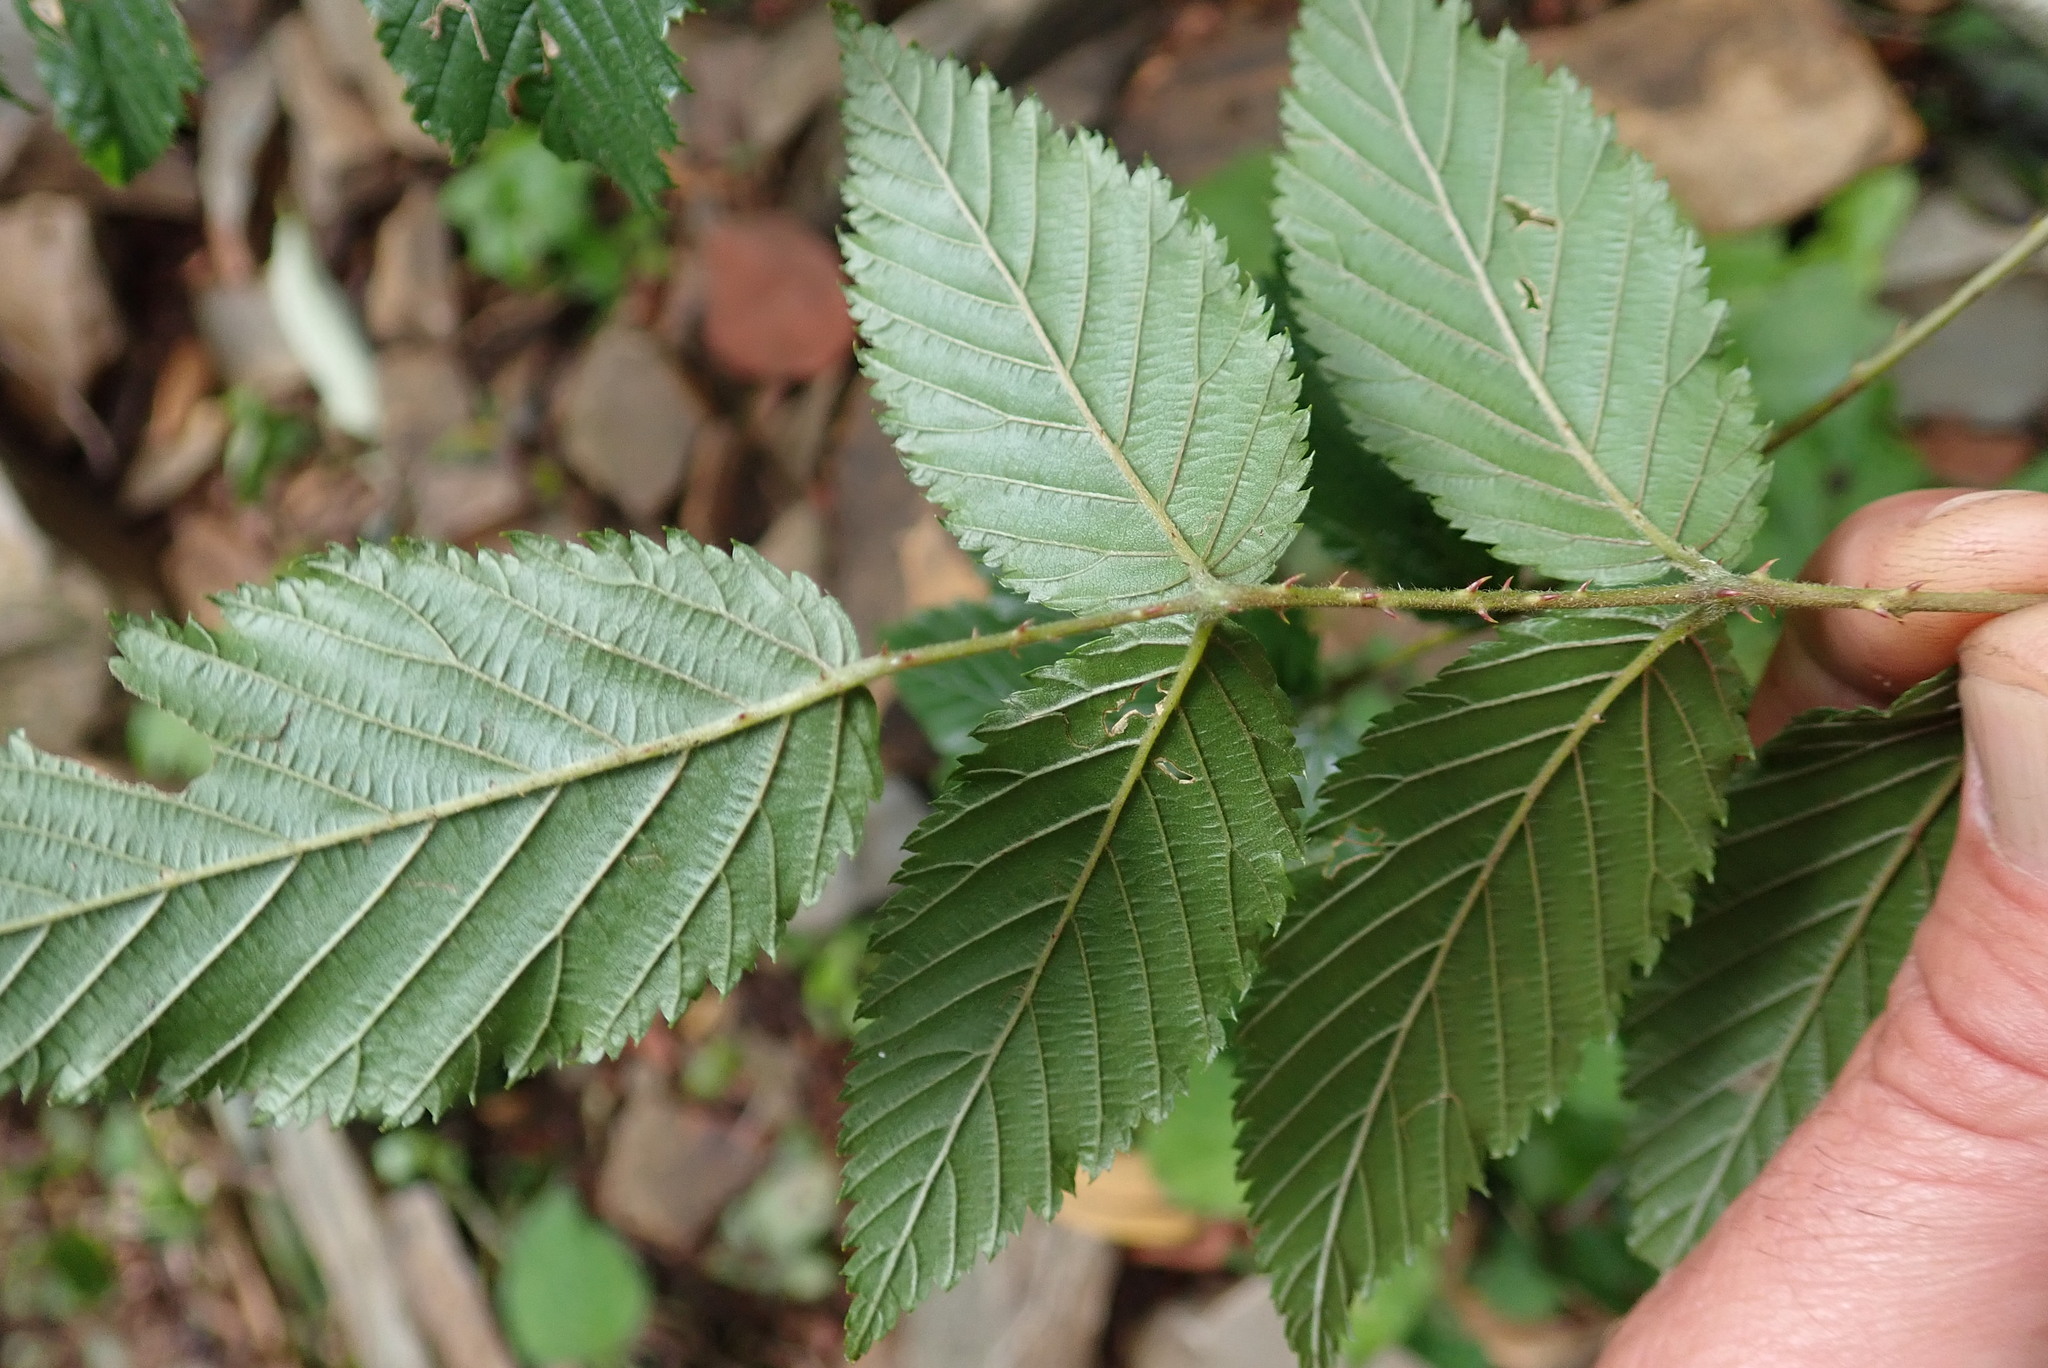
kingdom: Plantae
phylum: Tracheophyta
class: Magnoliopsida
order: Rosales
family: Rosaceae
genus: Rubus
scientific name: Rubus pinnatus
